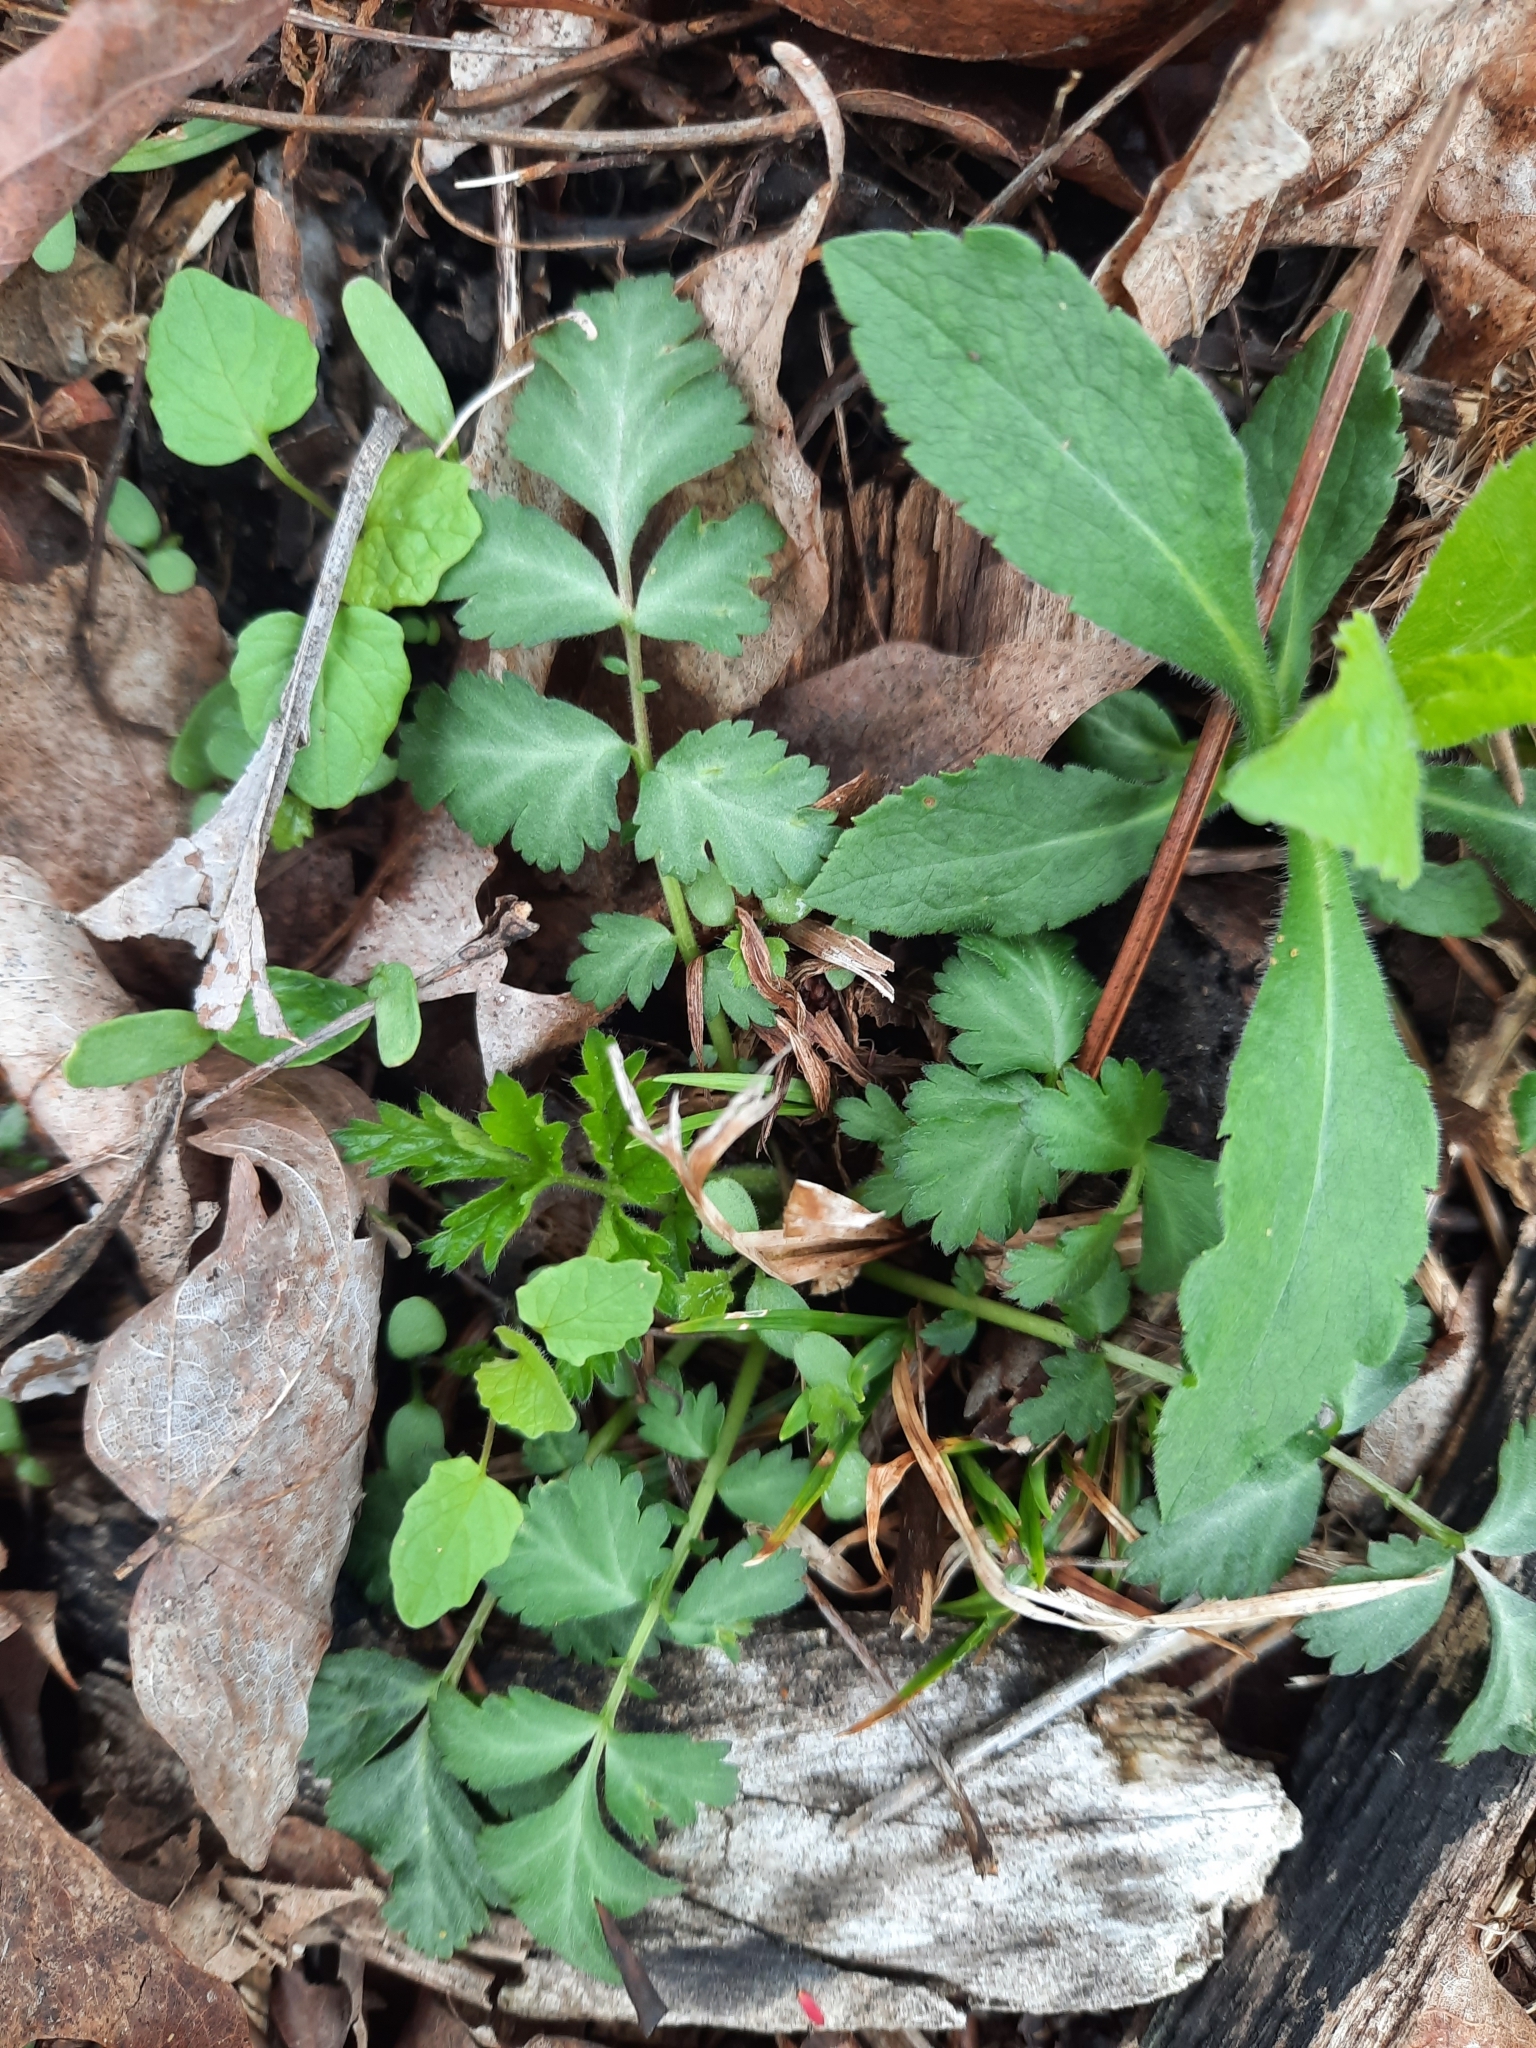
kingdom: Plantae
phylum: Tracheophyta
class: Magnoliopsida
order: Rosales
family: Rosaceae
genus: Geum
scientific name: Geum canadense
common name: White avens
